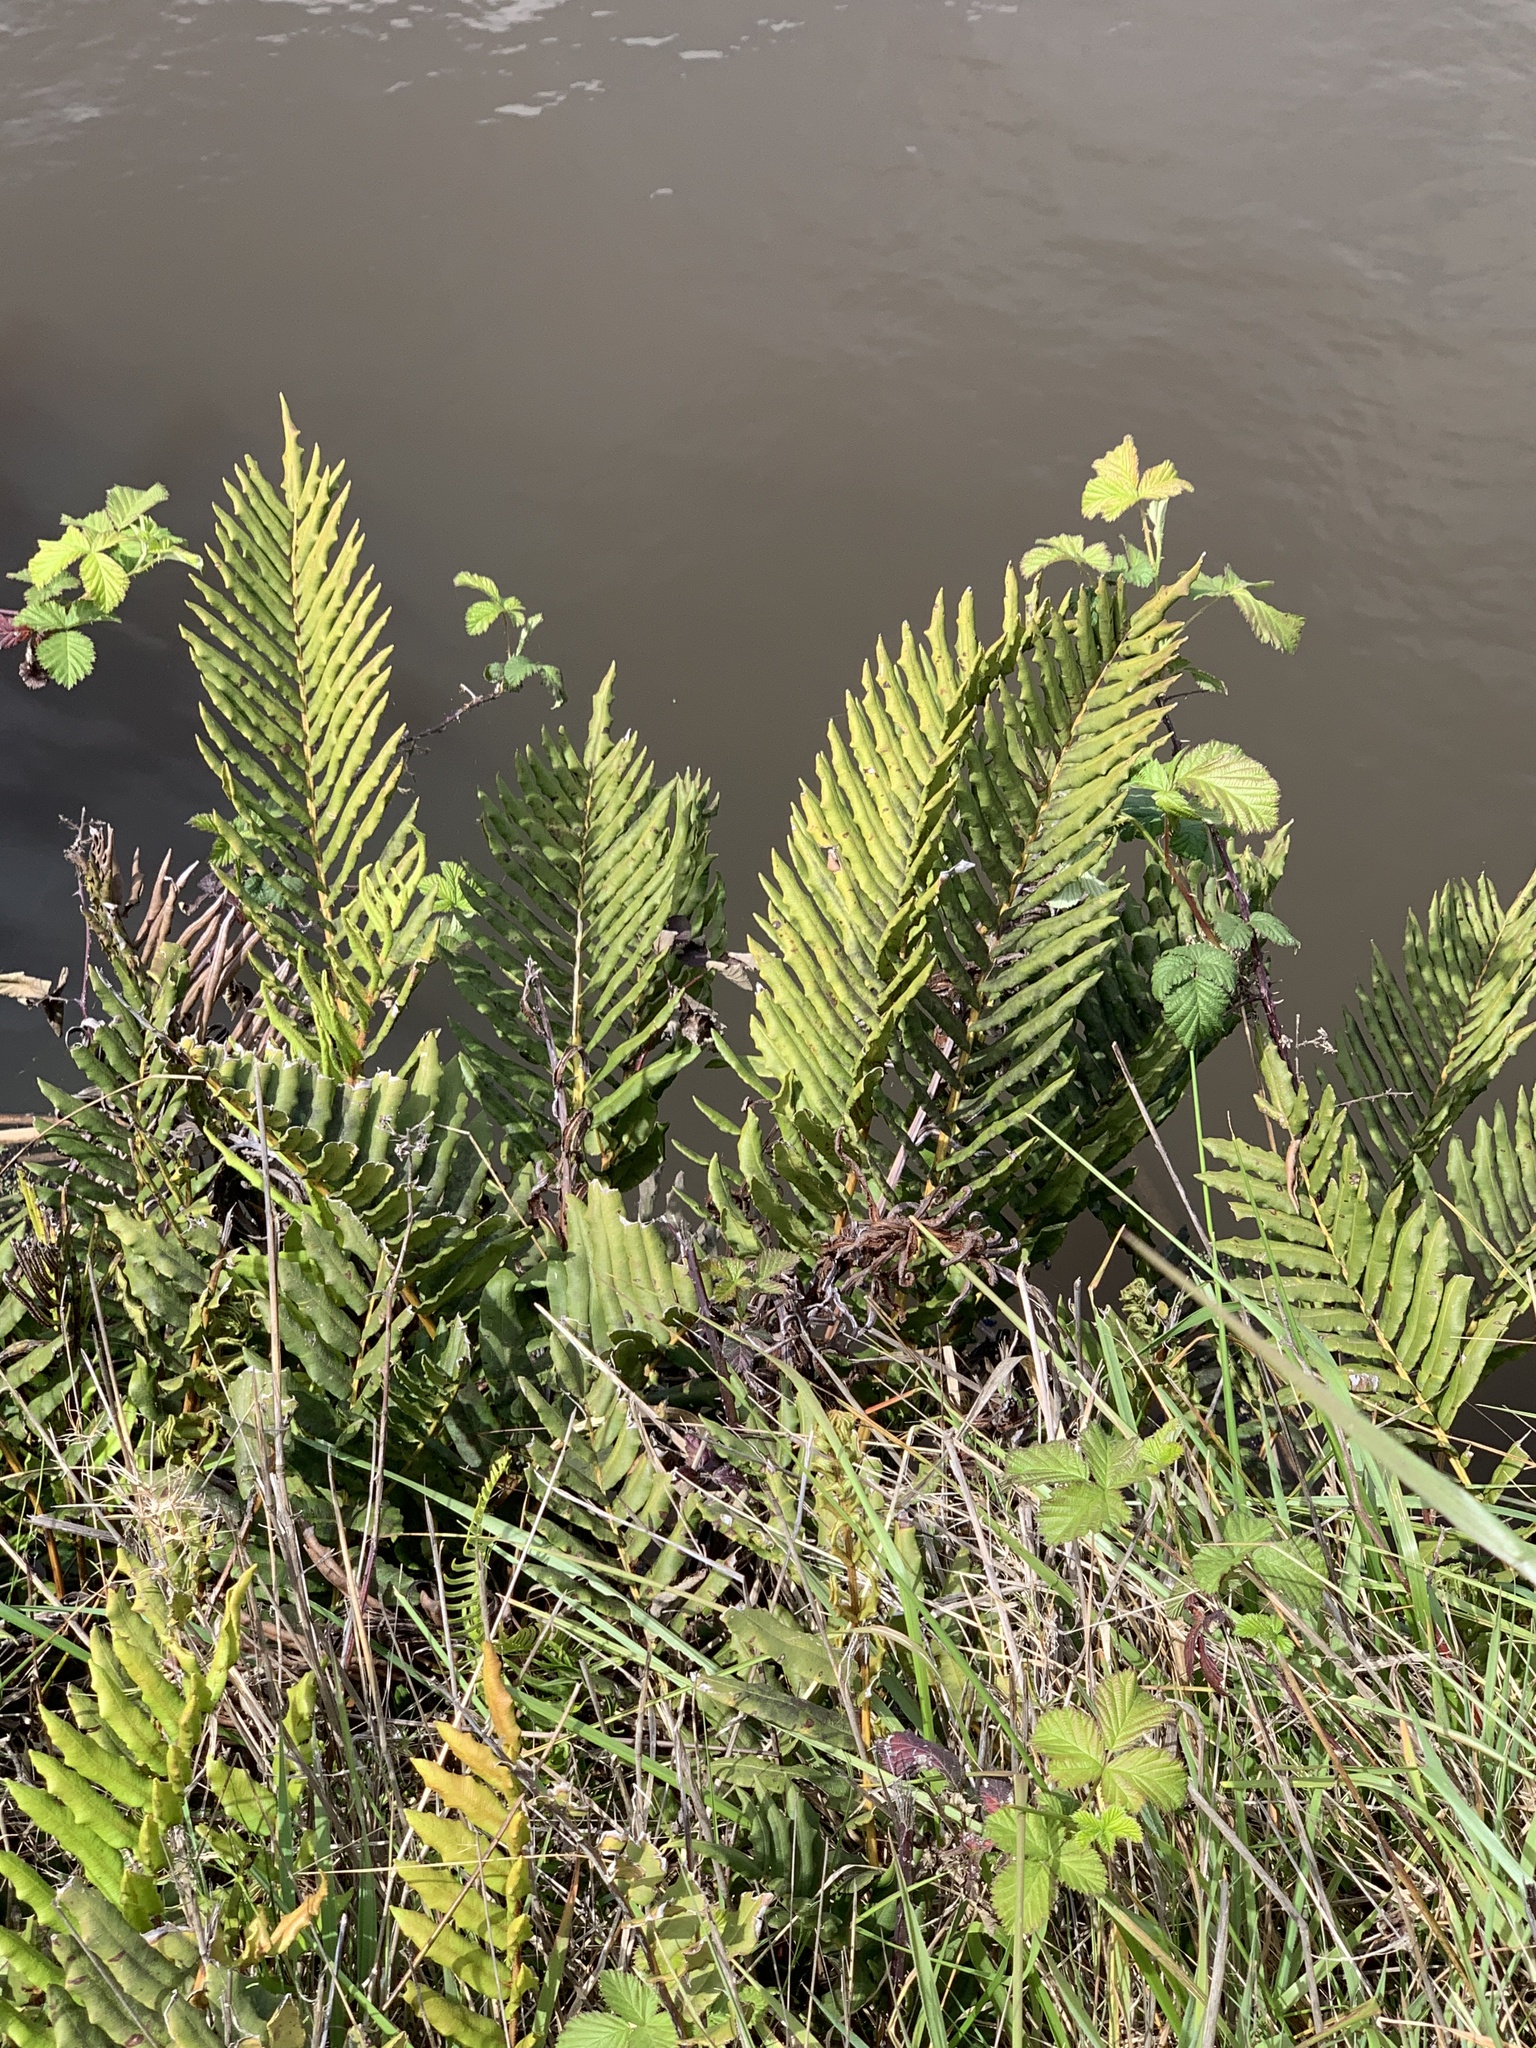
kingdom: Plantae
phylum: Tracheophyta
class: Polypodiopsida
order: Polypodiales
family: Blechnaceae
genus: Parablechnum
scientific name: Parablechnum chilense
